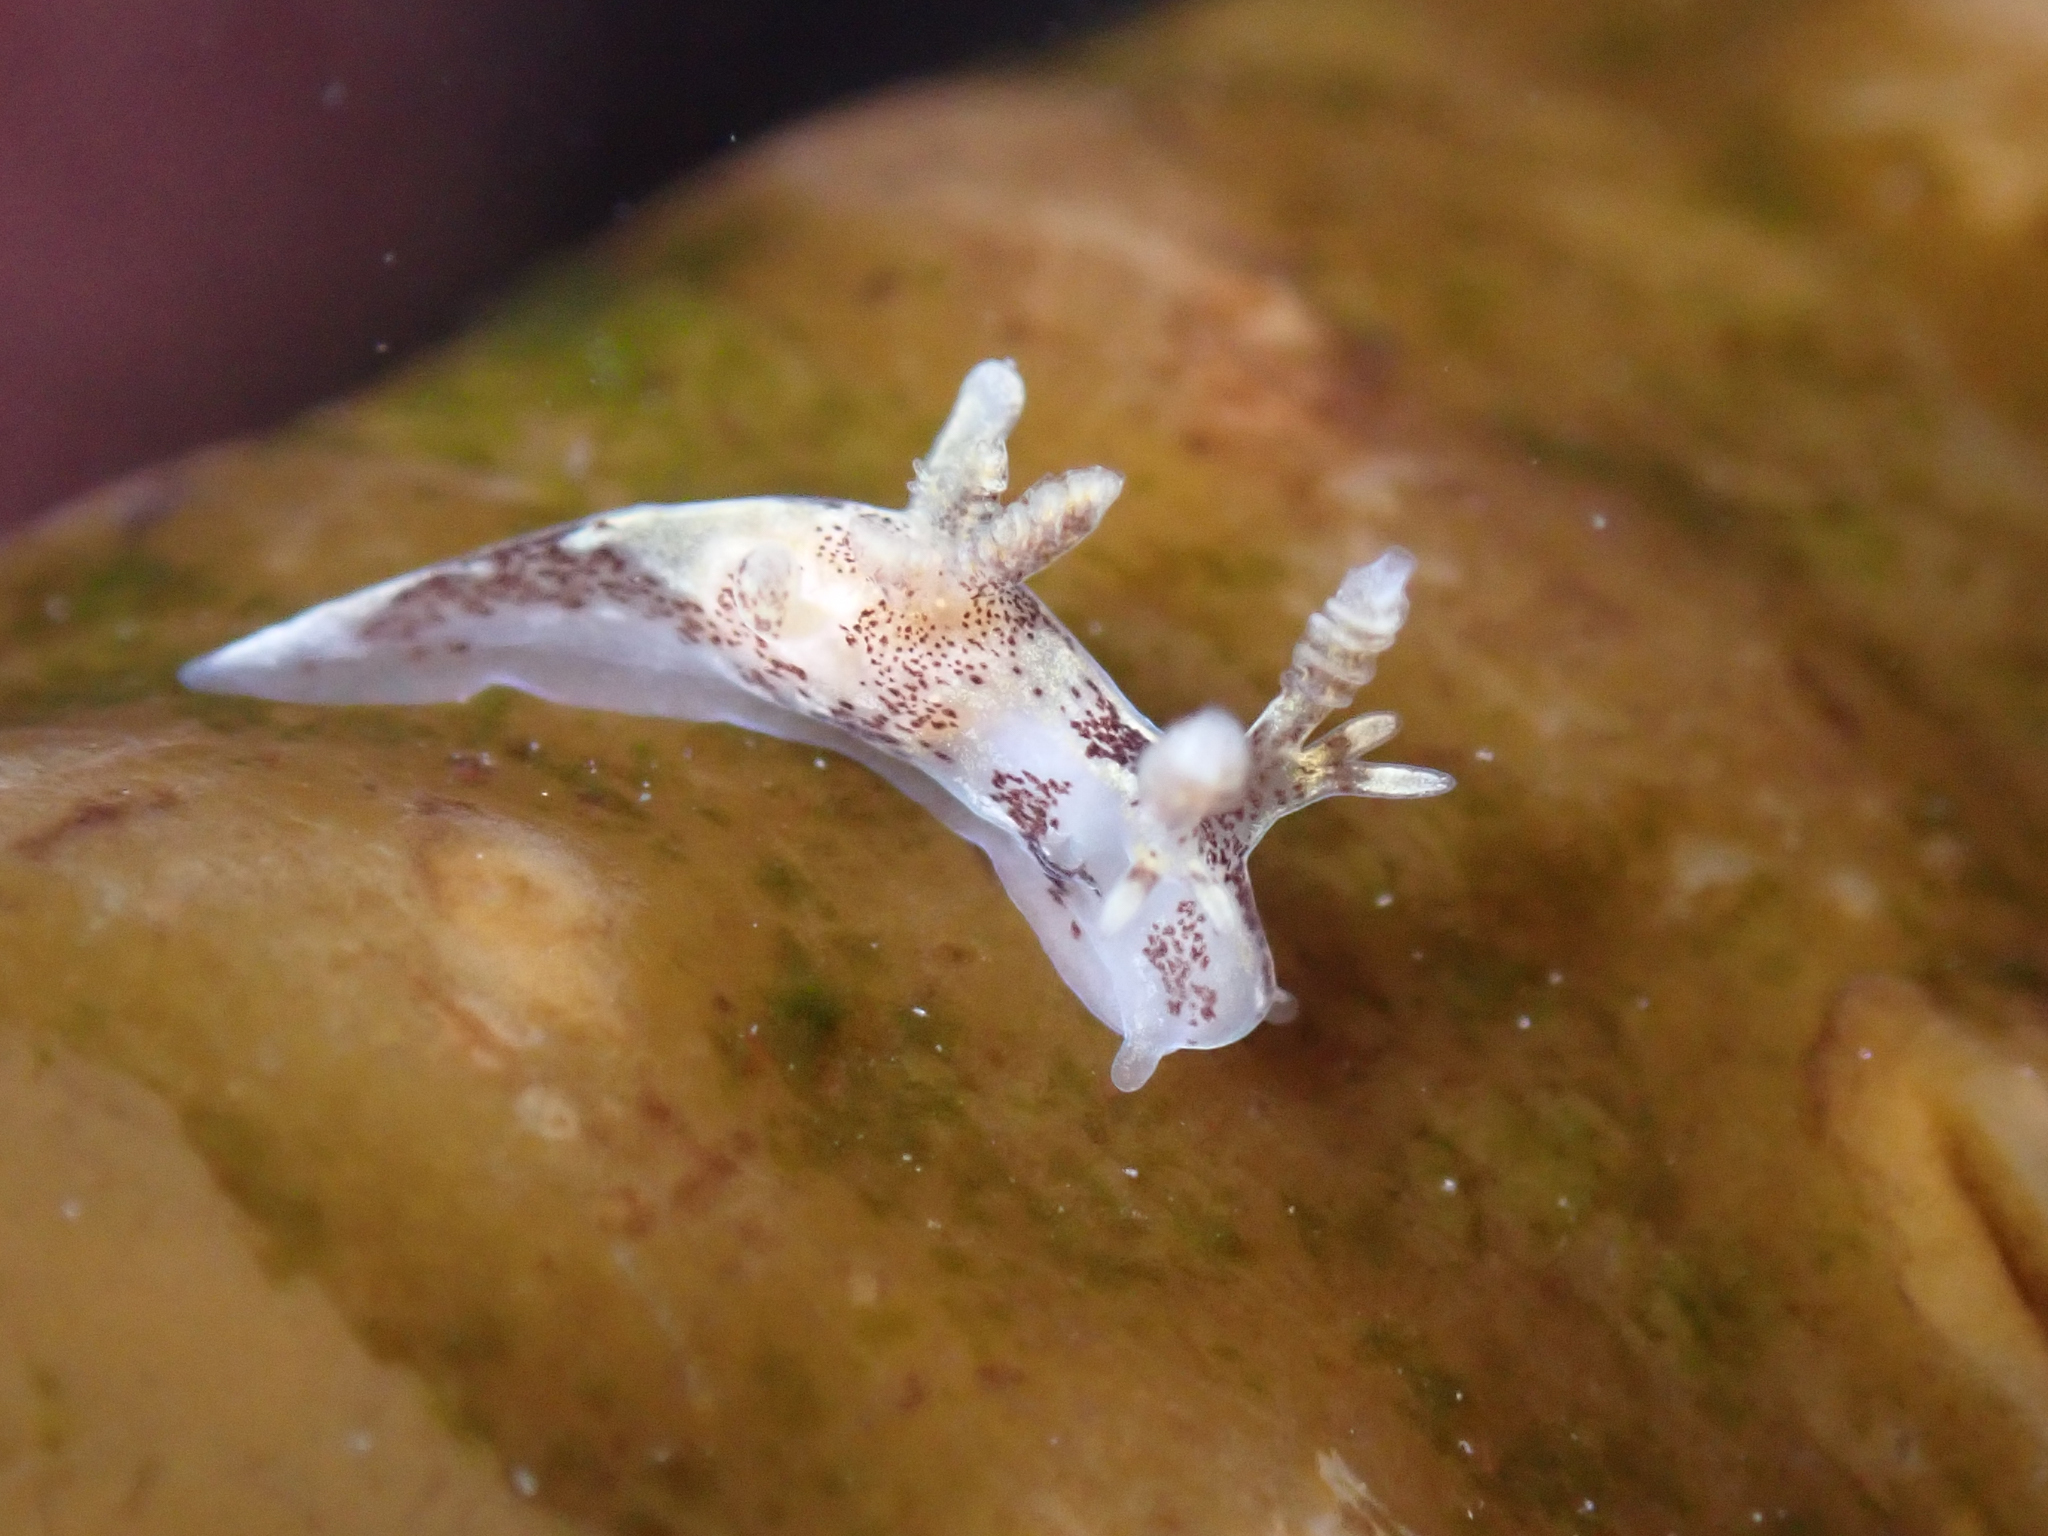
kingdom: Animalia
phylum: Mollusca
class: Gastropoda
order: Nudibranchia
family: Goniodorididae
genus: Ancula
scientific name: Ancula lentiginosa
